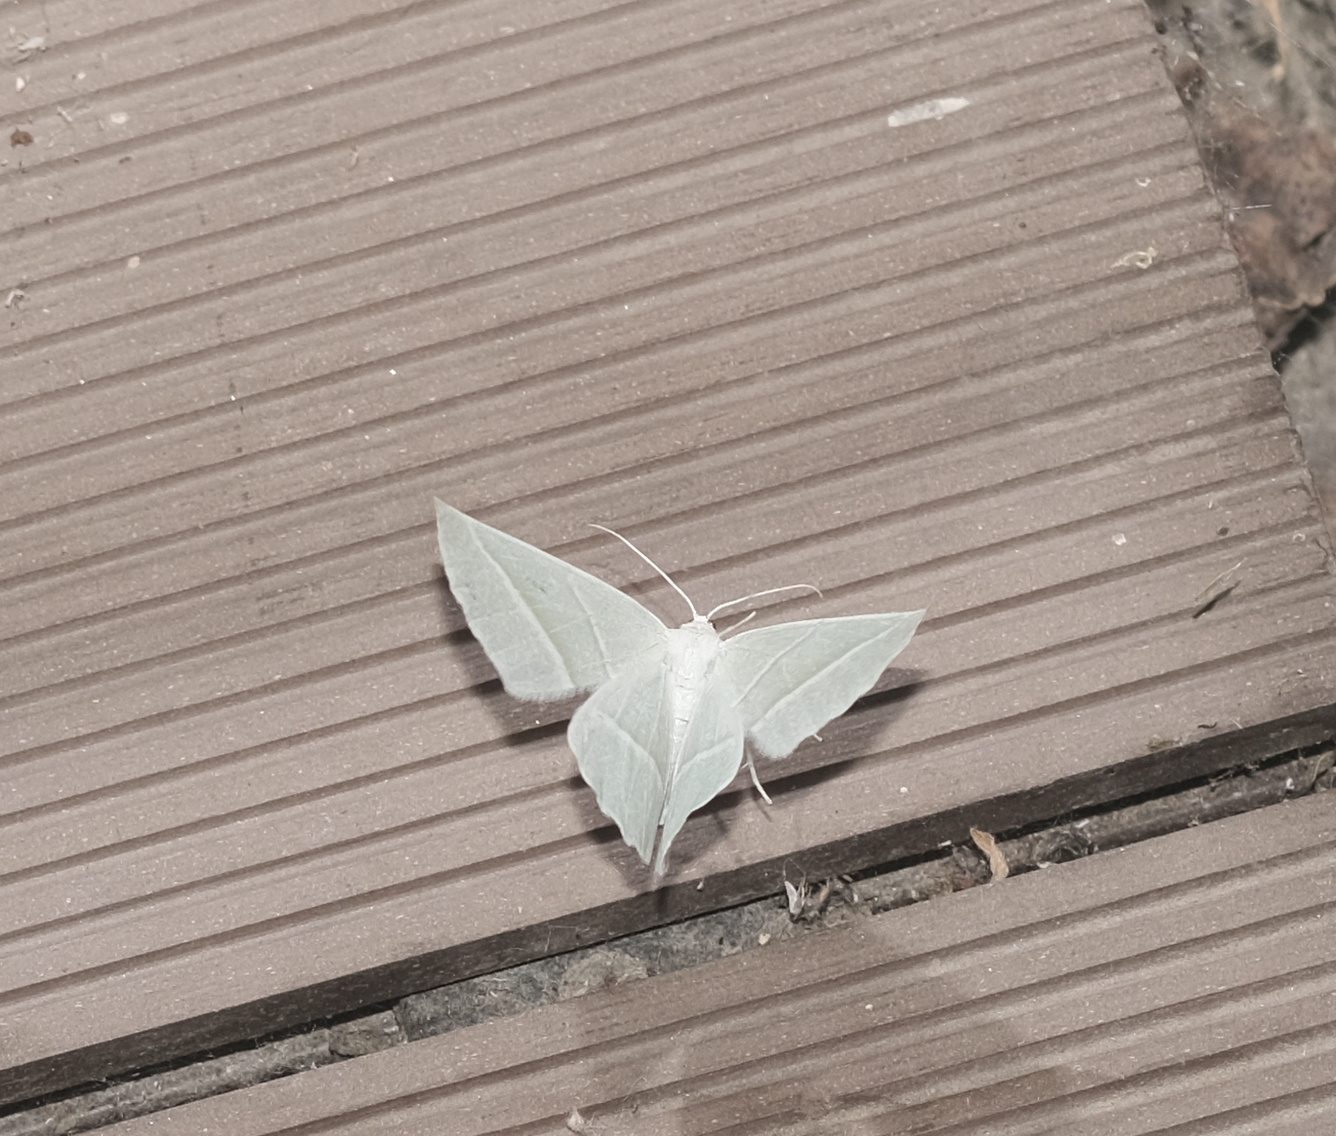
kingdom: Animalia
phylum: Arthropoda
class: Insecta
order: Lepidoptera
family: Geometridae
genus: Campaea
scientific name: Campaea margaritaria
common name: Light emerald
